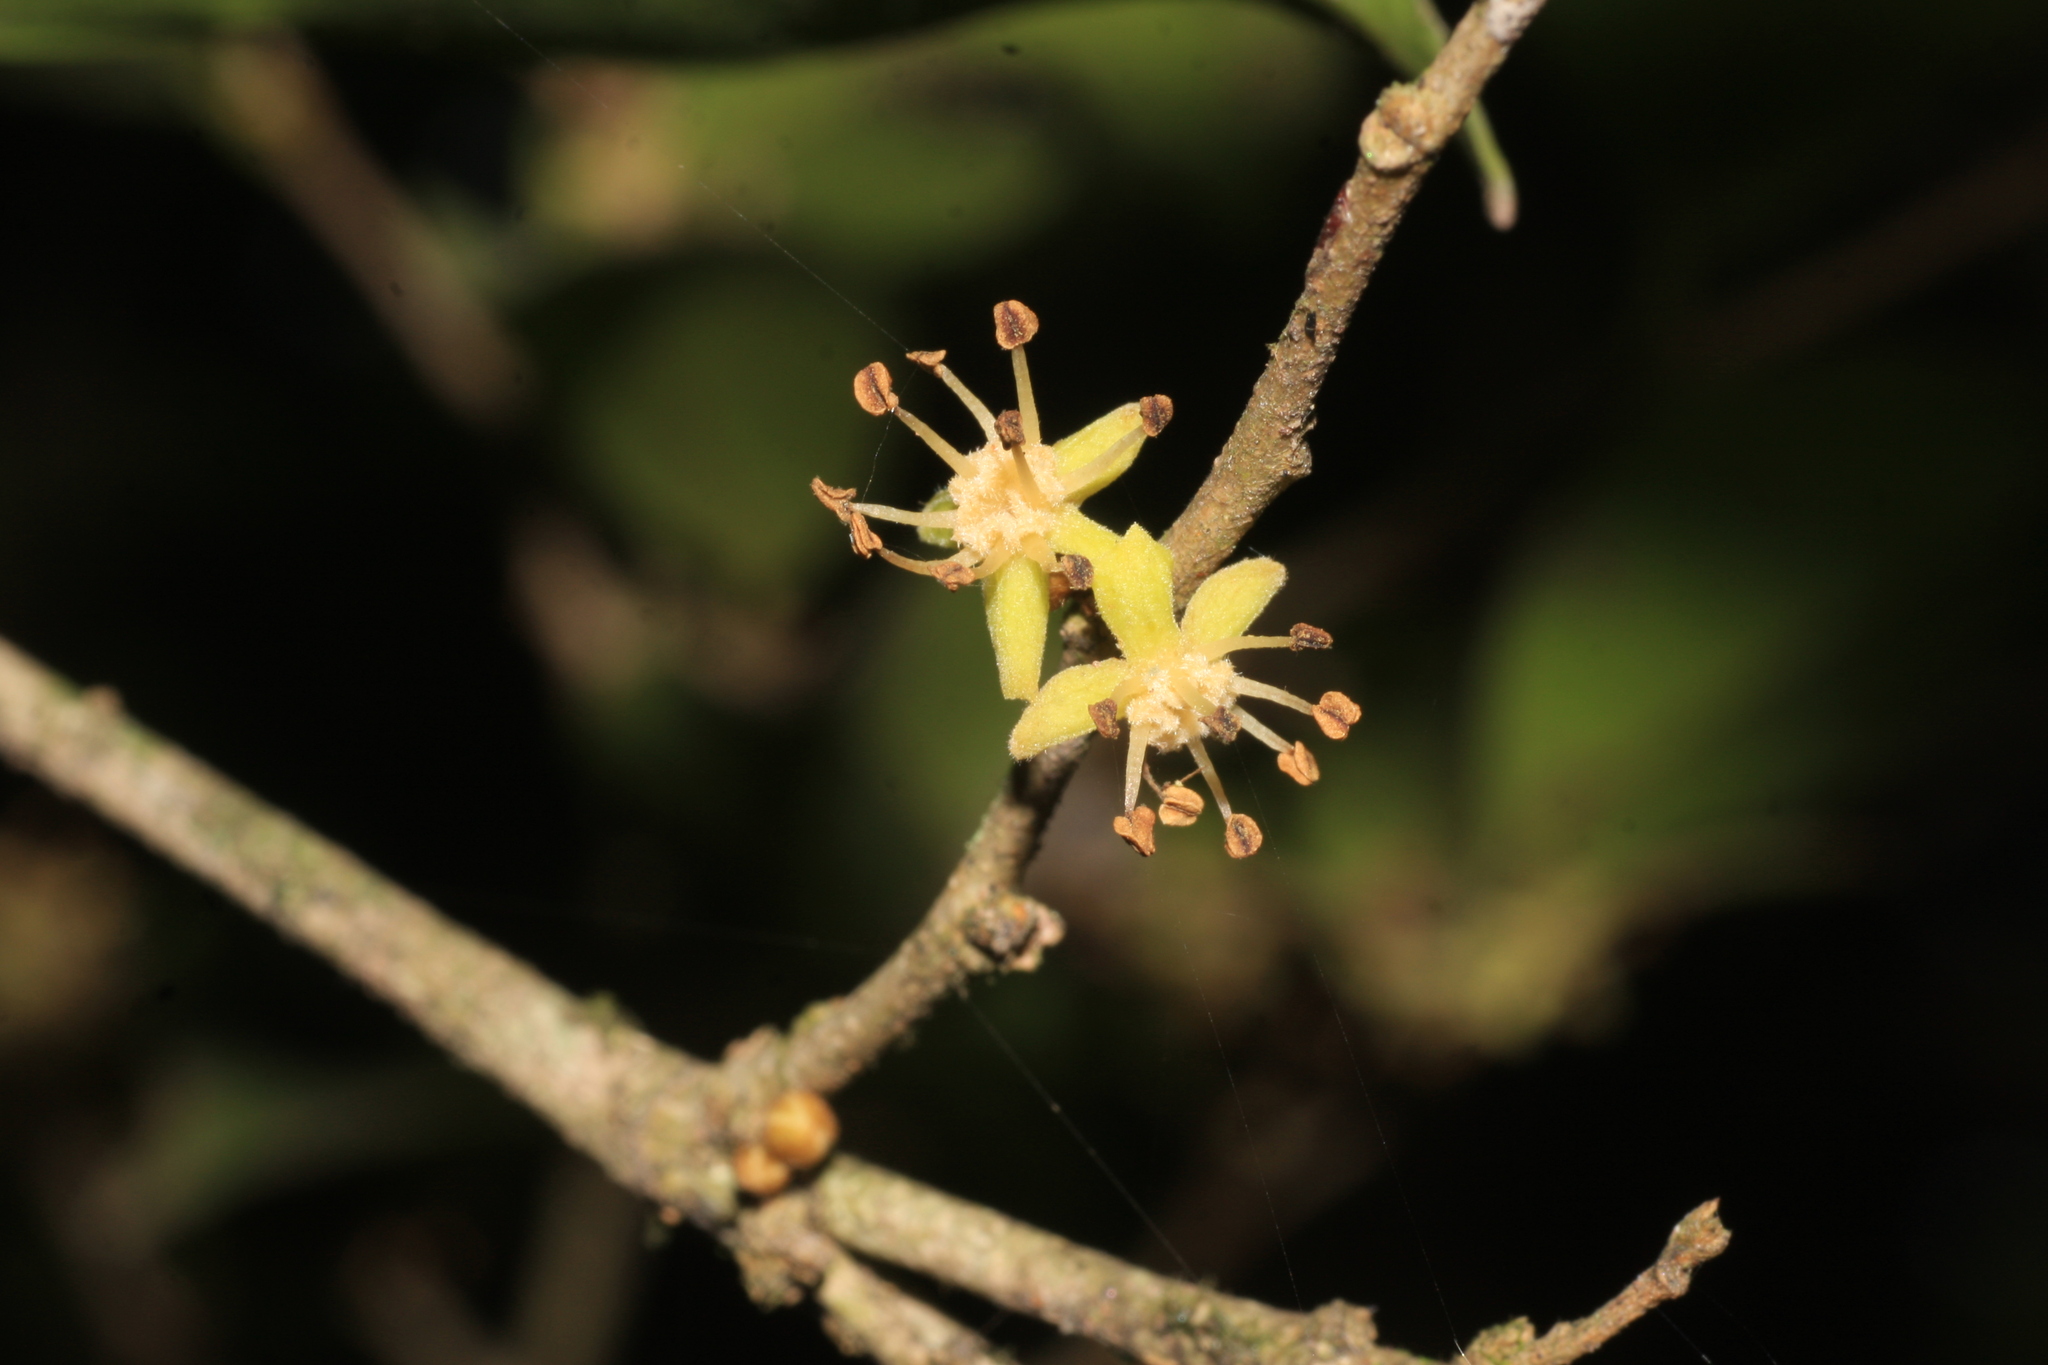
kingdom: Plantae
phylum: Tracheophyta
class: Magnoliopsida
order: Malpighiales
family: Putranjivaceae
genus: Drypetes
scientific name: Drypetes wightii
